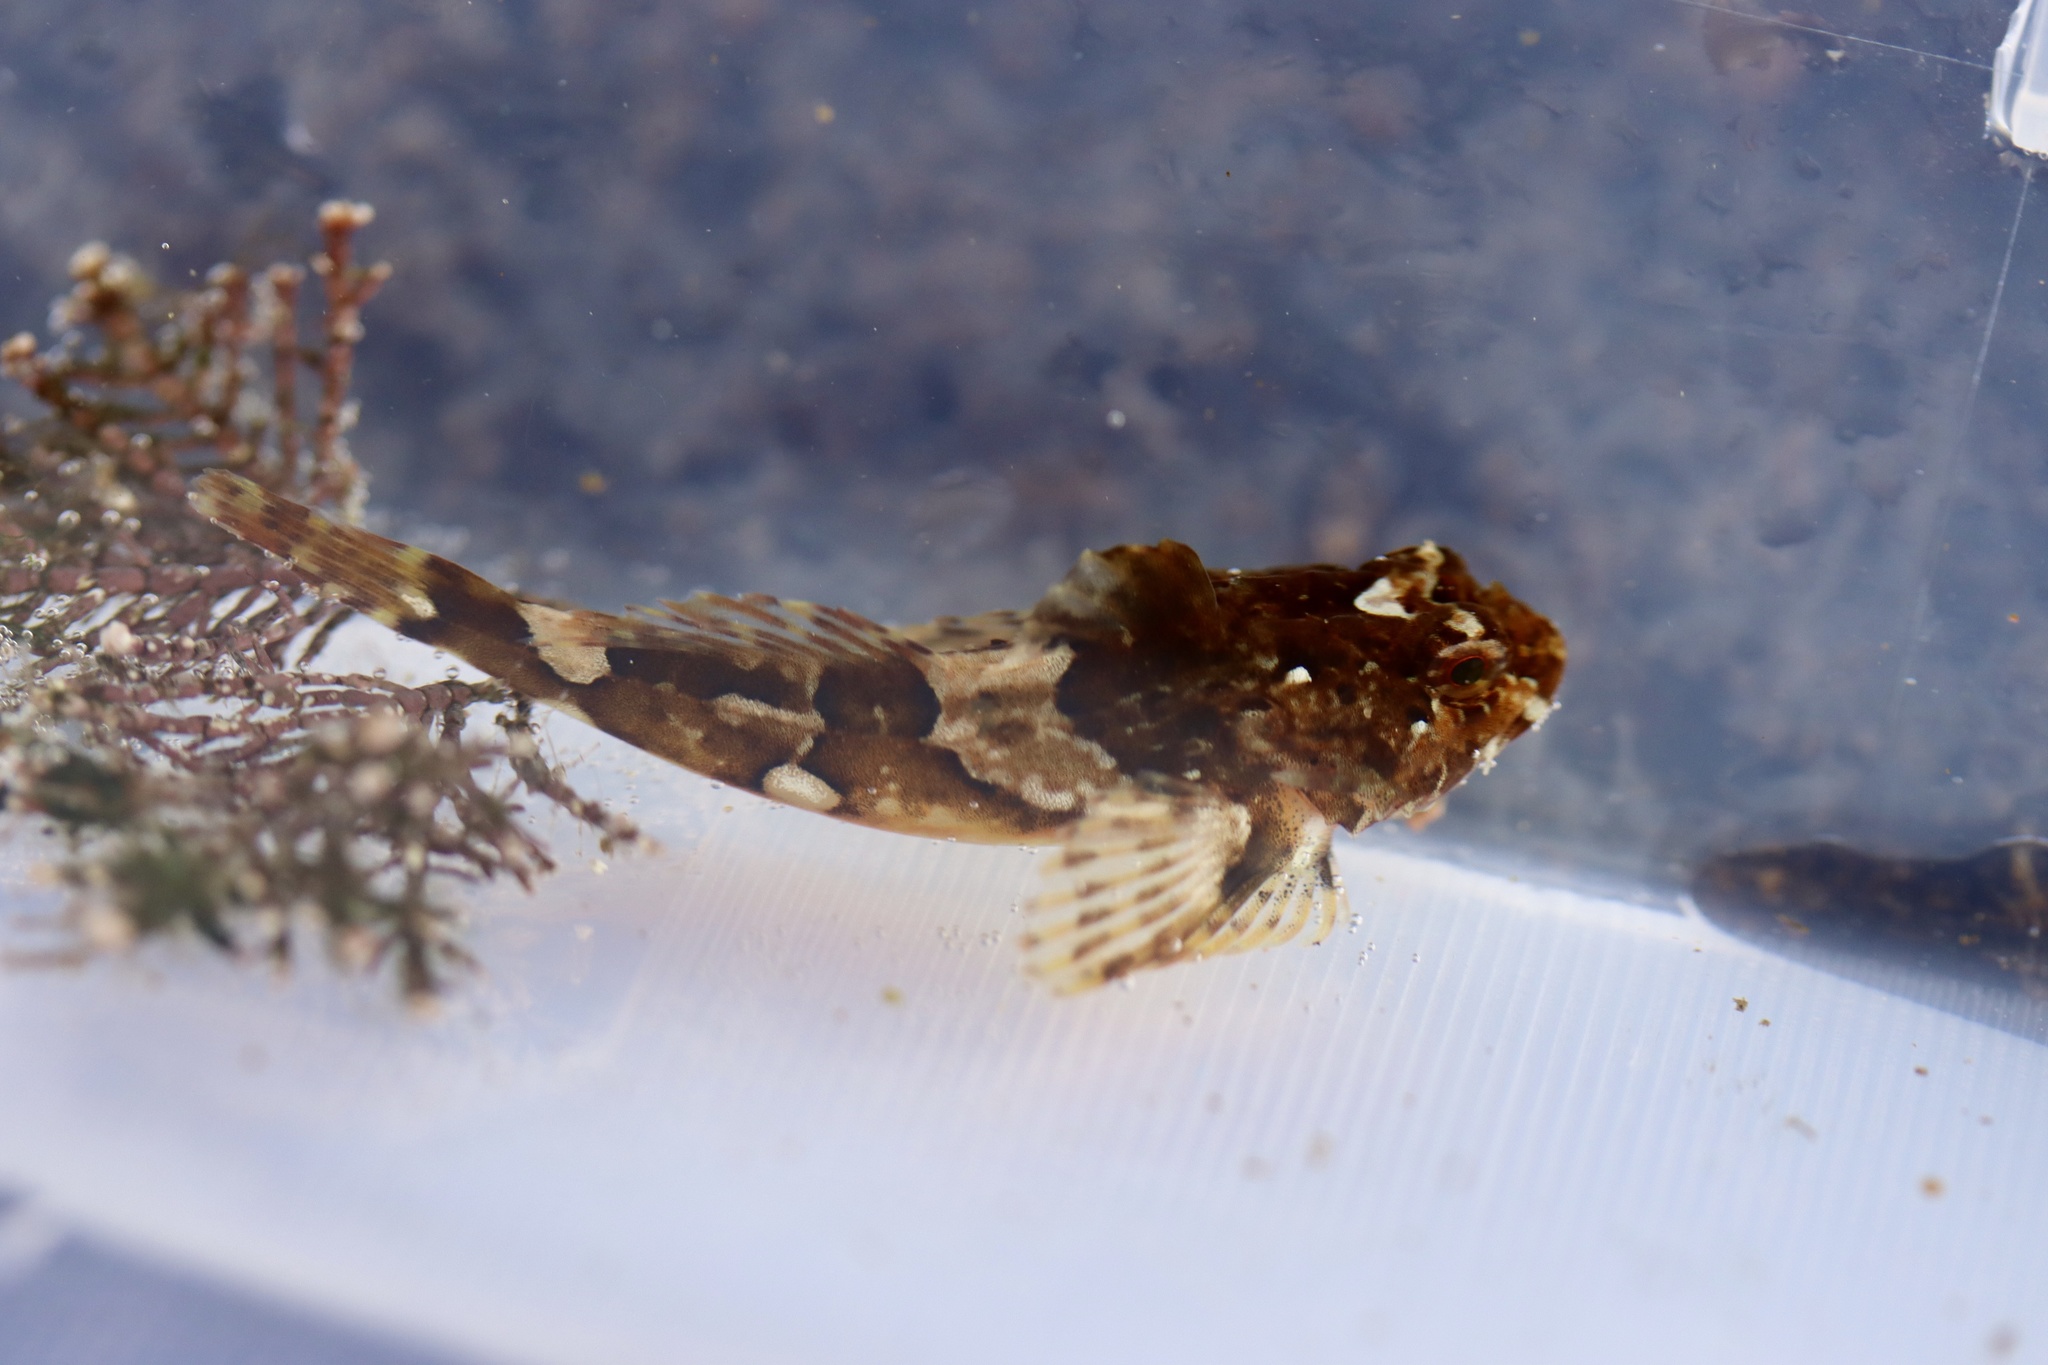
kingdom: Animalia
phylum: Chordata
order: Scorpaeniformes
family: Cottidae
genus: Taurulus
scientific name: Taurulus bubalis
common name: Sea scorpion
